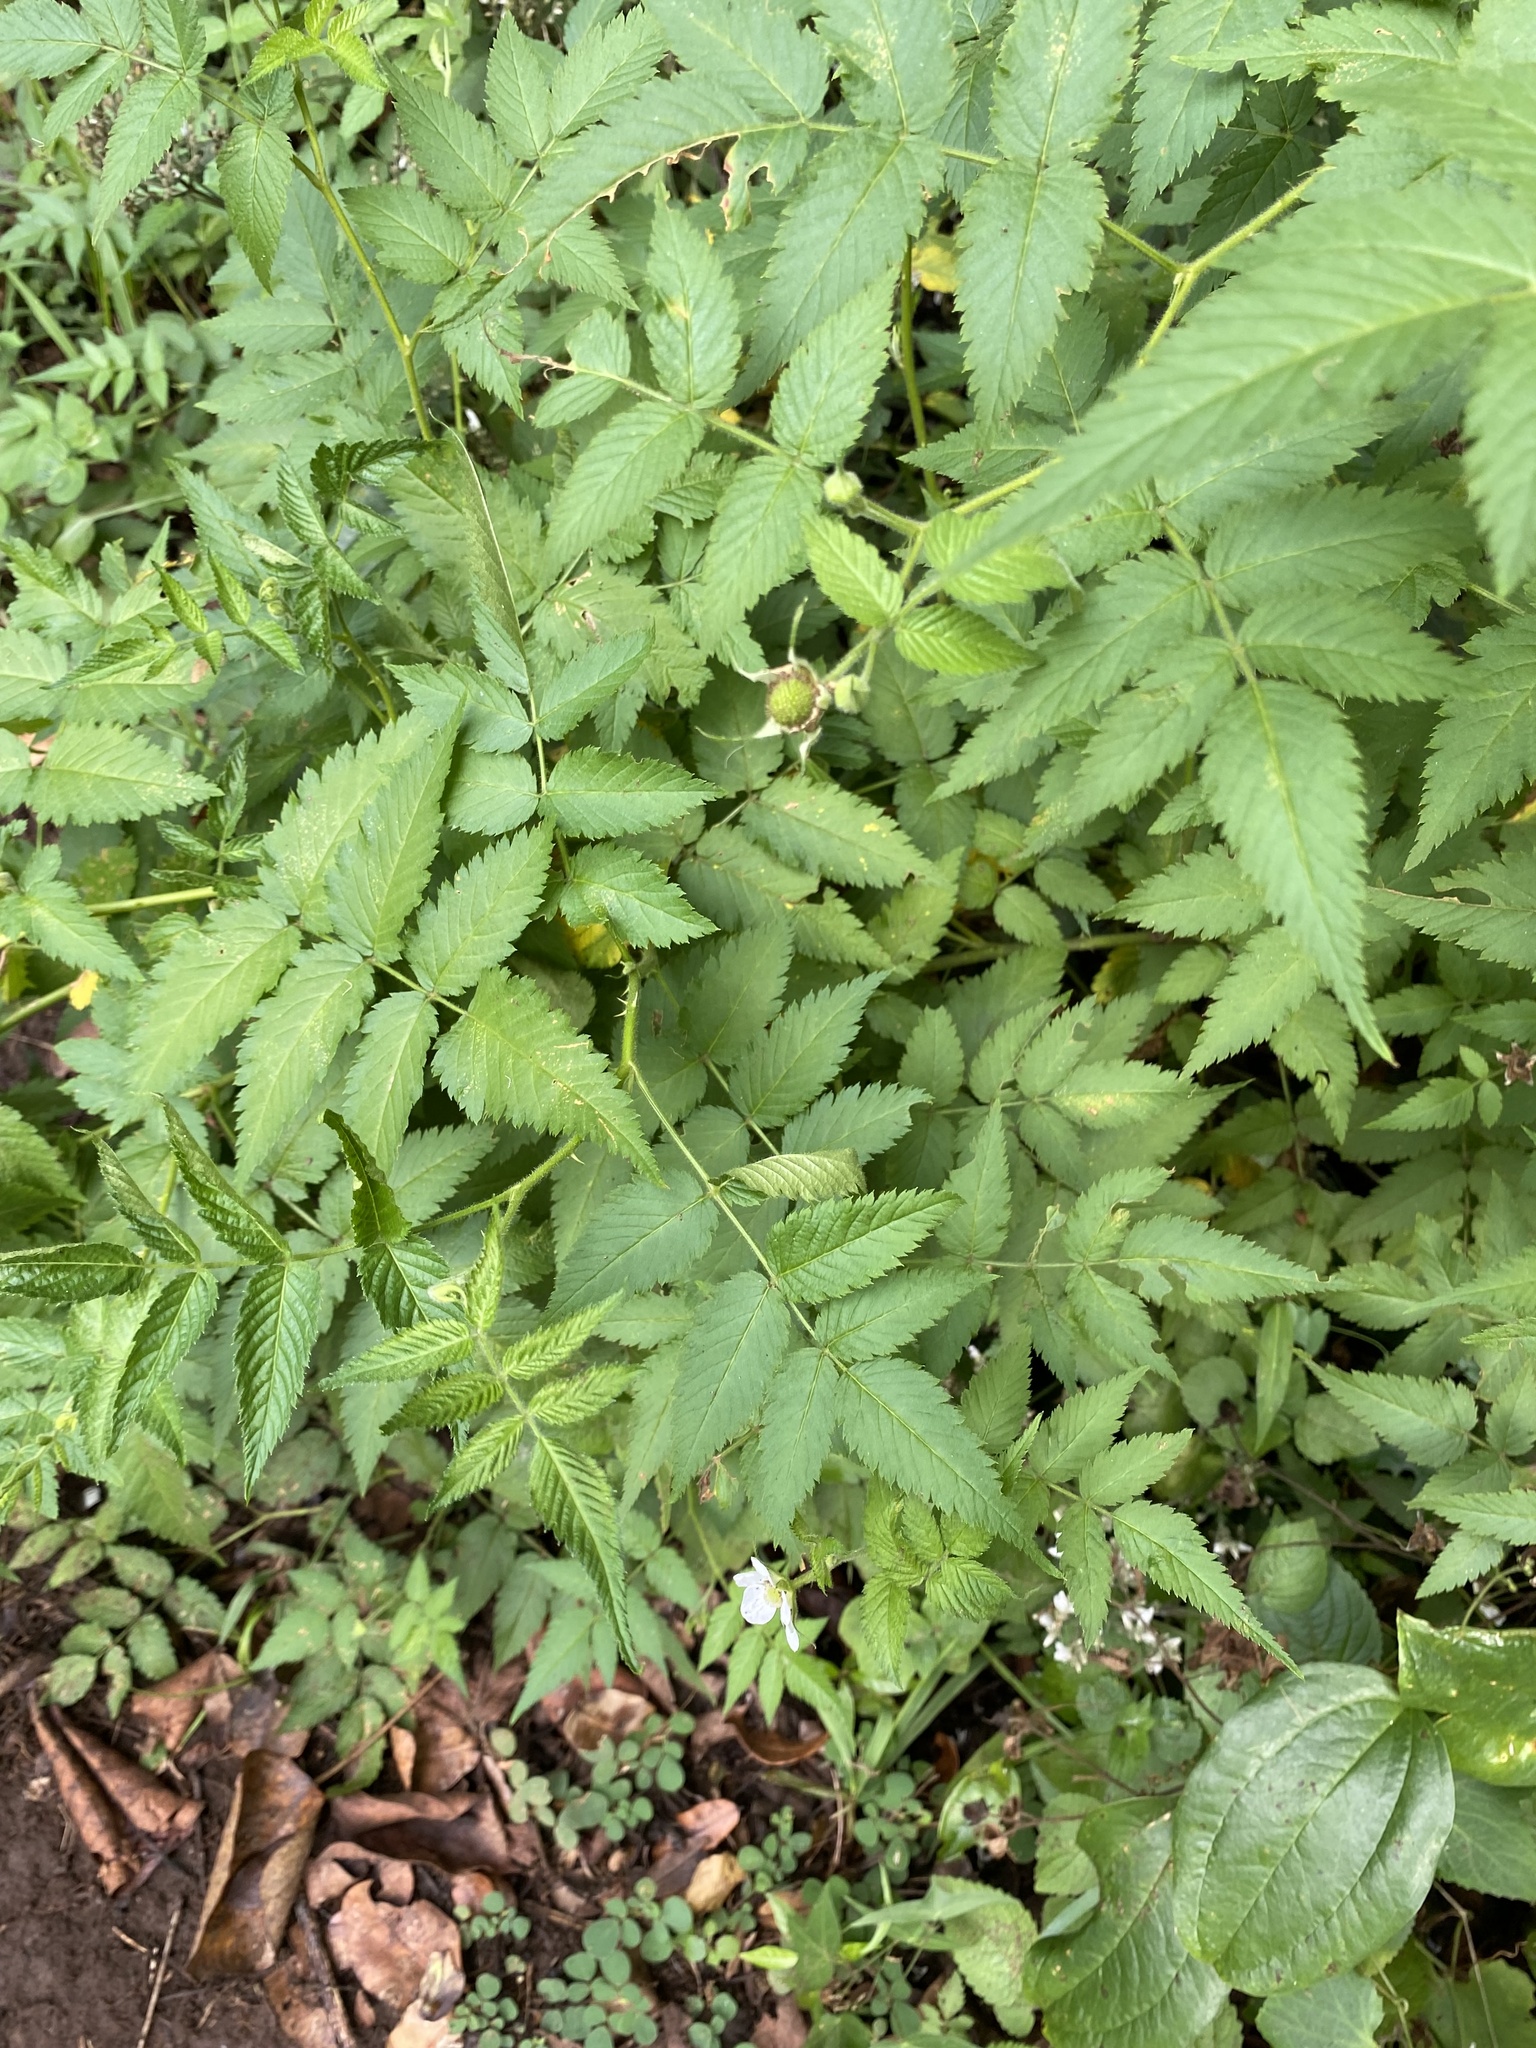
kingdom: Plantae
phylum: Tracheophyta
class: Magnoliopsida
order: Rosales
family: Rosaceae
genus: Rubus
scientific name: Rubus rosifolius
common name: Roseleaf raspberry
